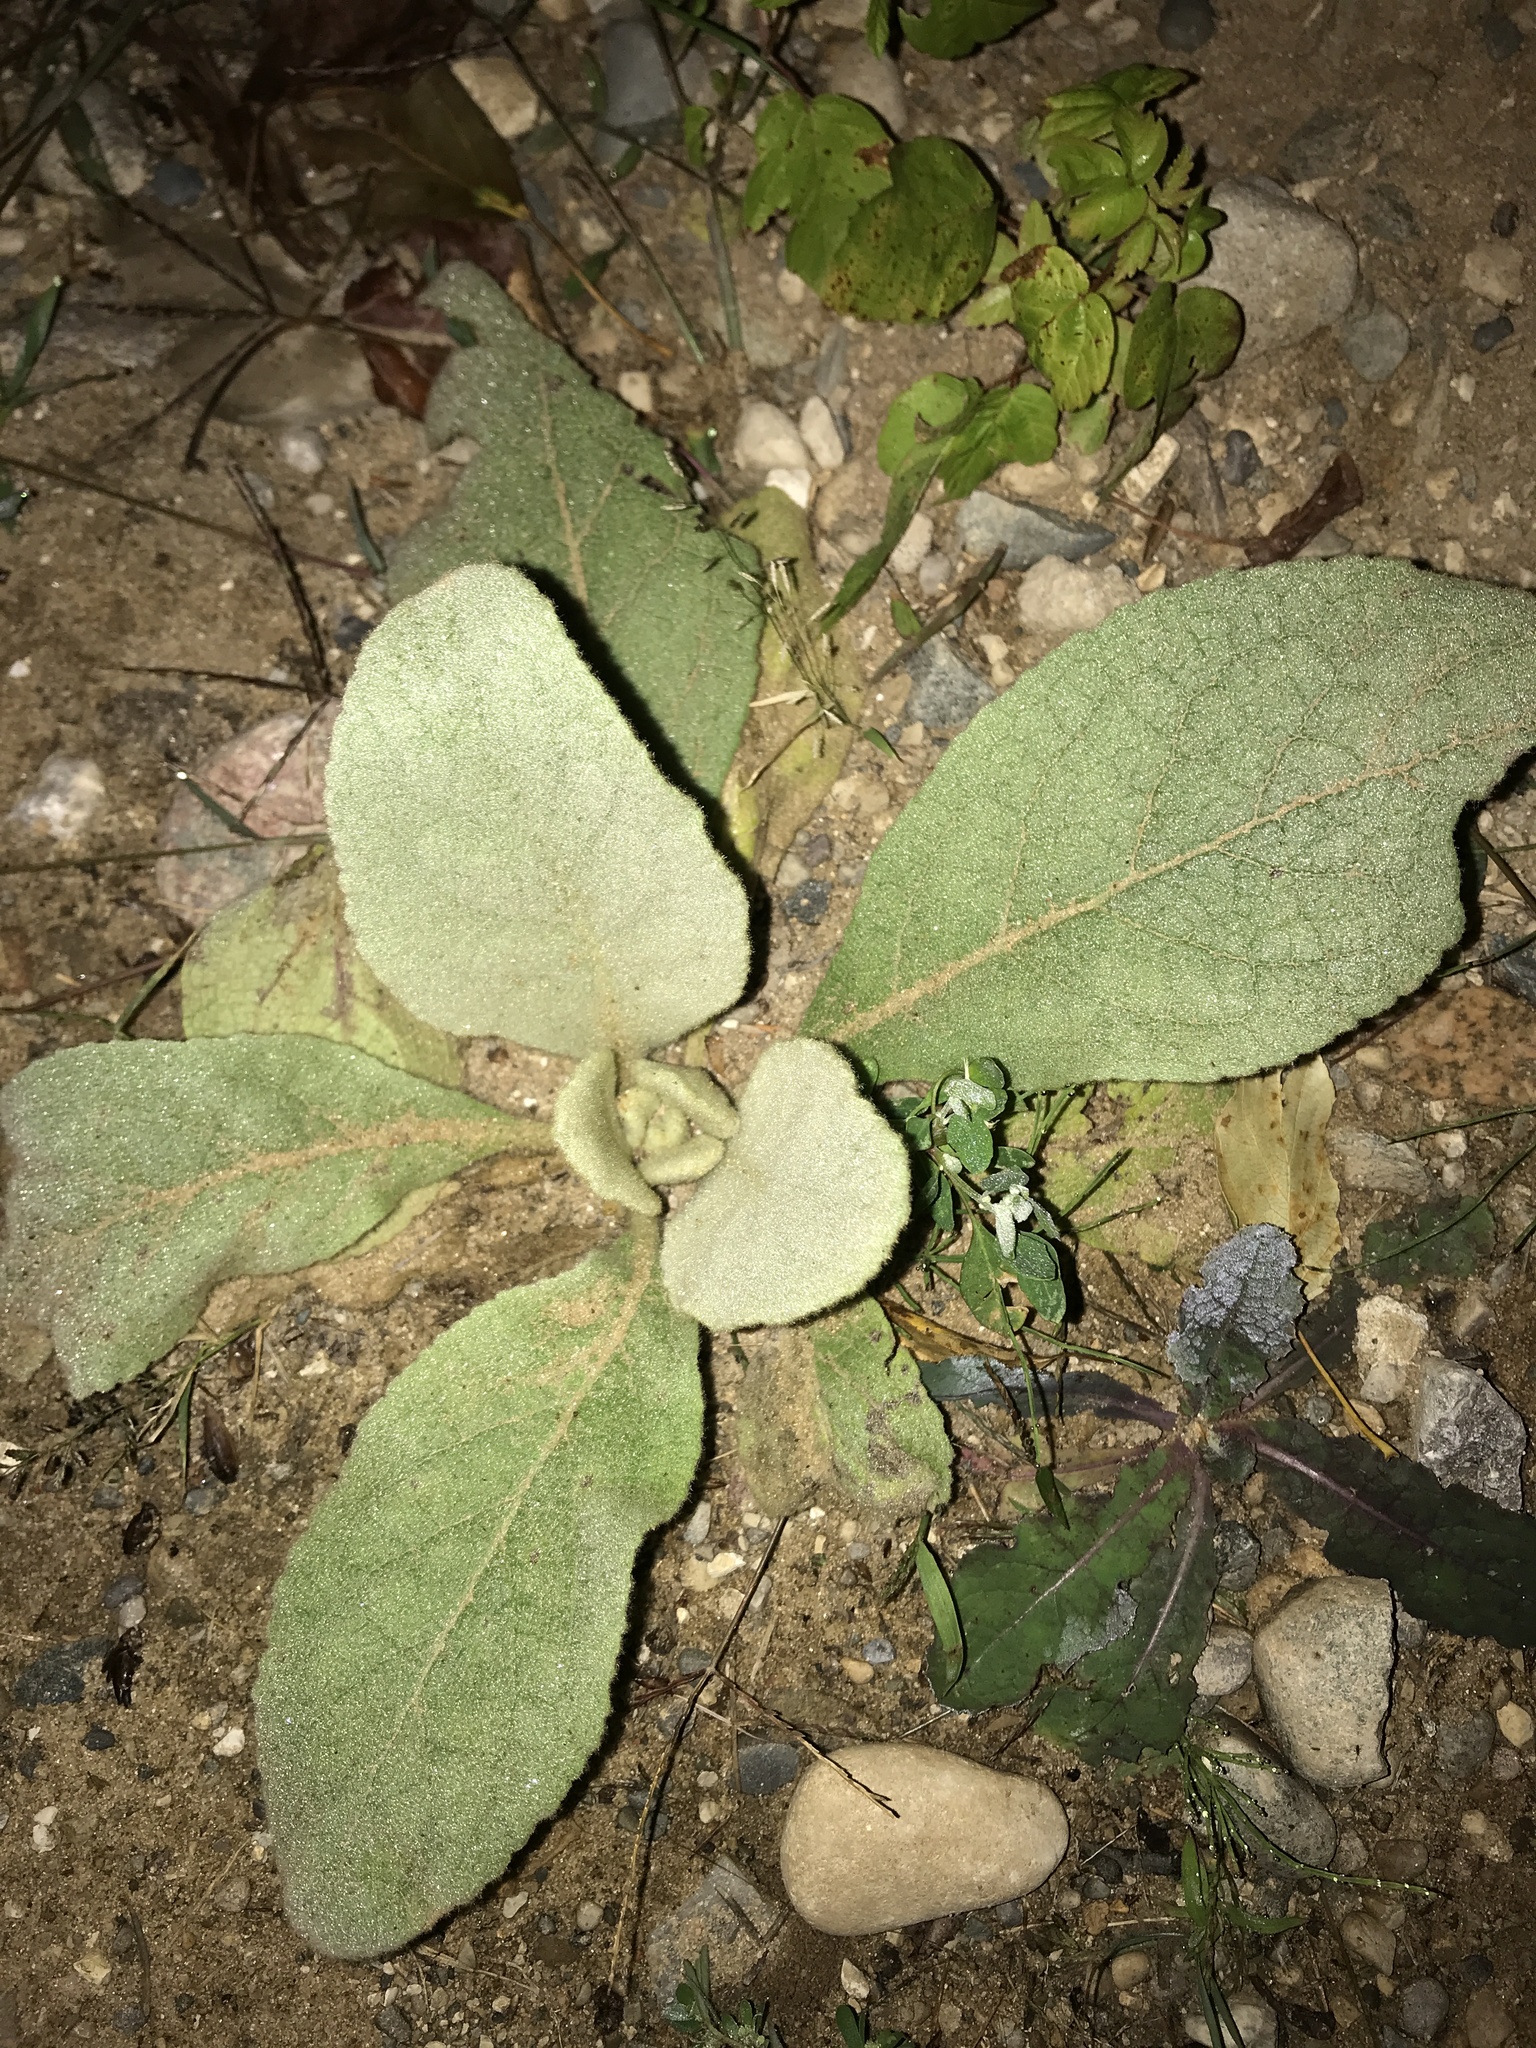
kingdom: Plantae
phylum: Tracheophyta
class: Magnoliopsida
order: Lamiales
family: Scrophulariaceae
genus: Verbascum
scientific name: Verbascum thapsus
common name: Common mullein
